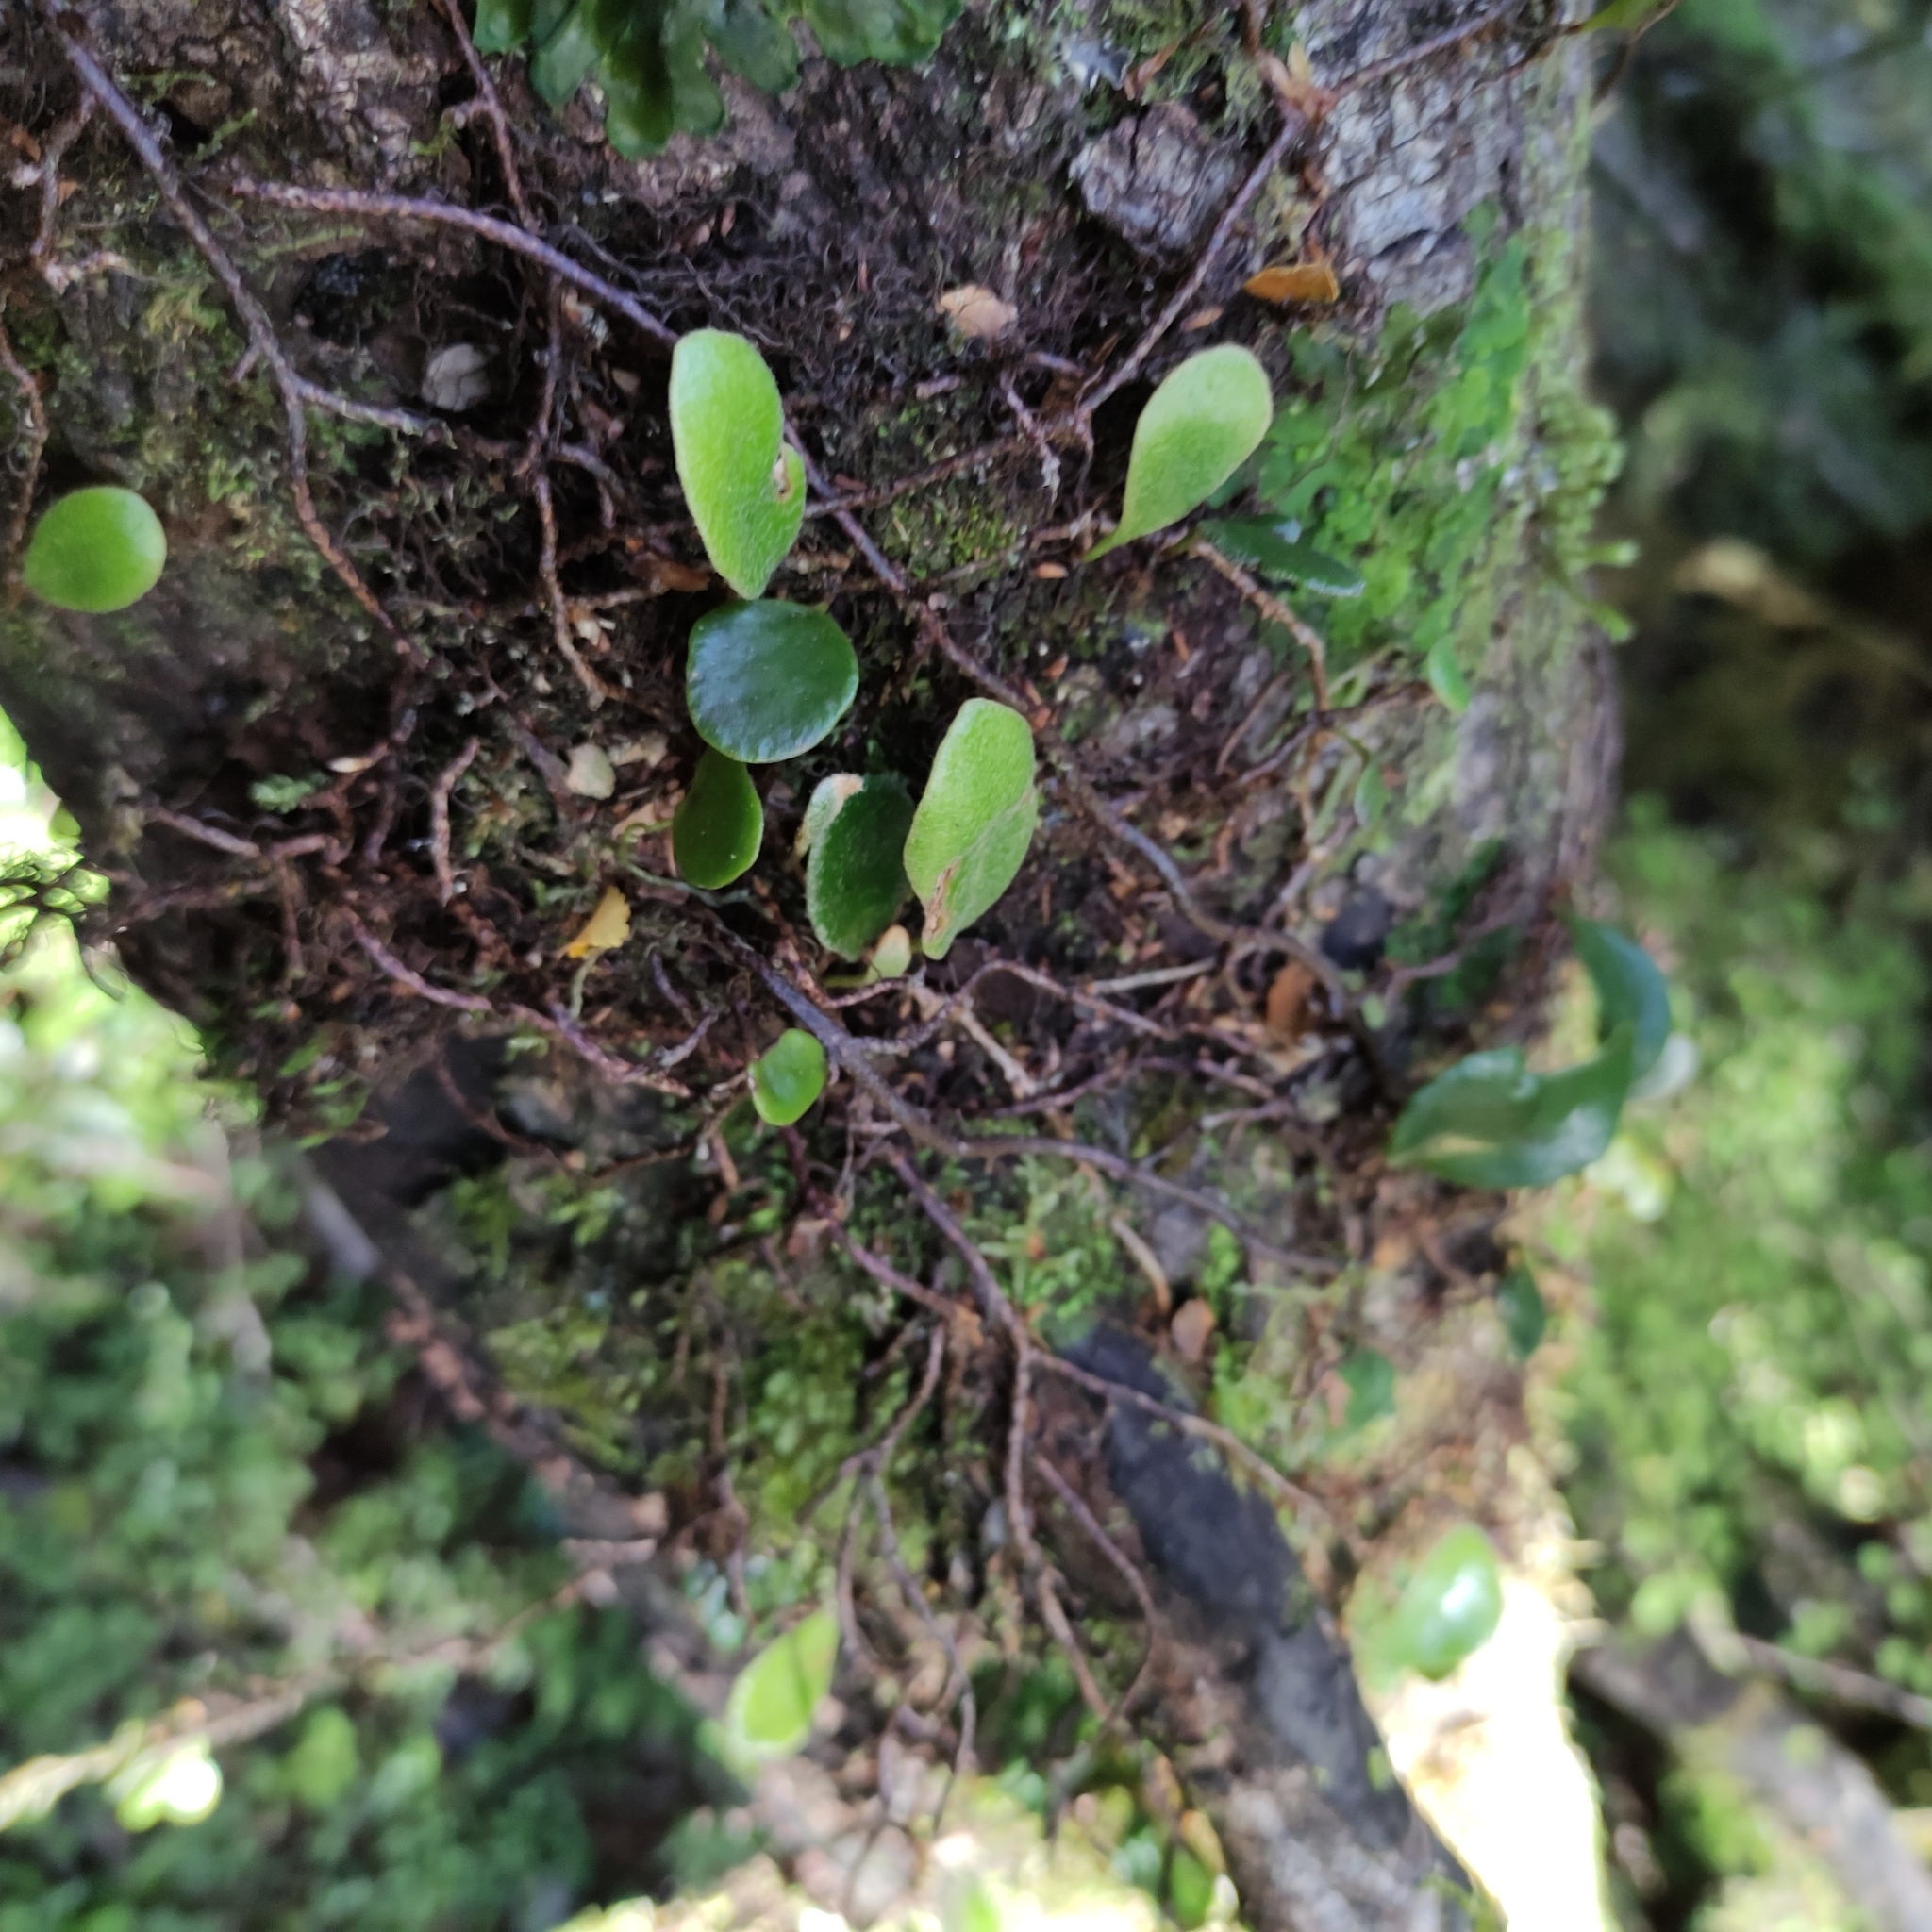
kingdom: Plantae
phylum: Tracheophyta
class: Polypodiopsida
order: Polypodiales
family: Polypodiaceae
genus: Pyrrosia
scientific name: Pyrrosia eleagnifolia
